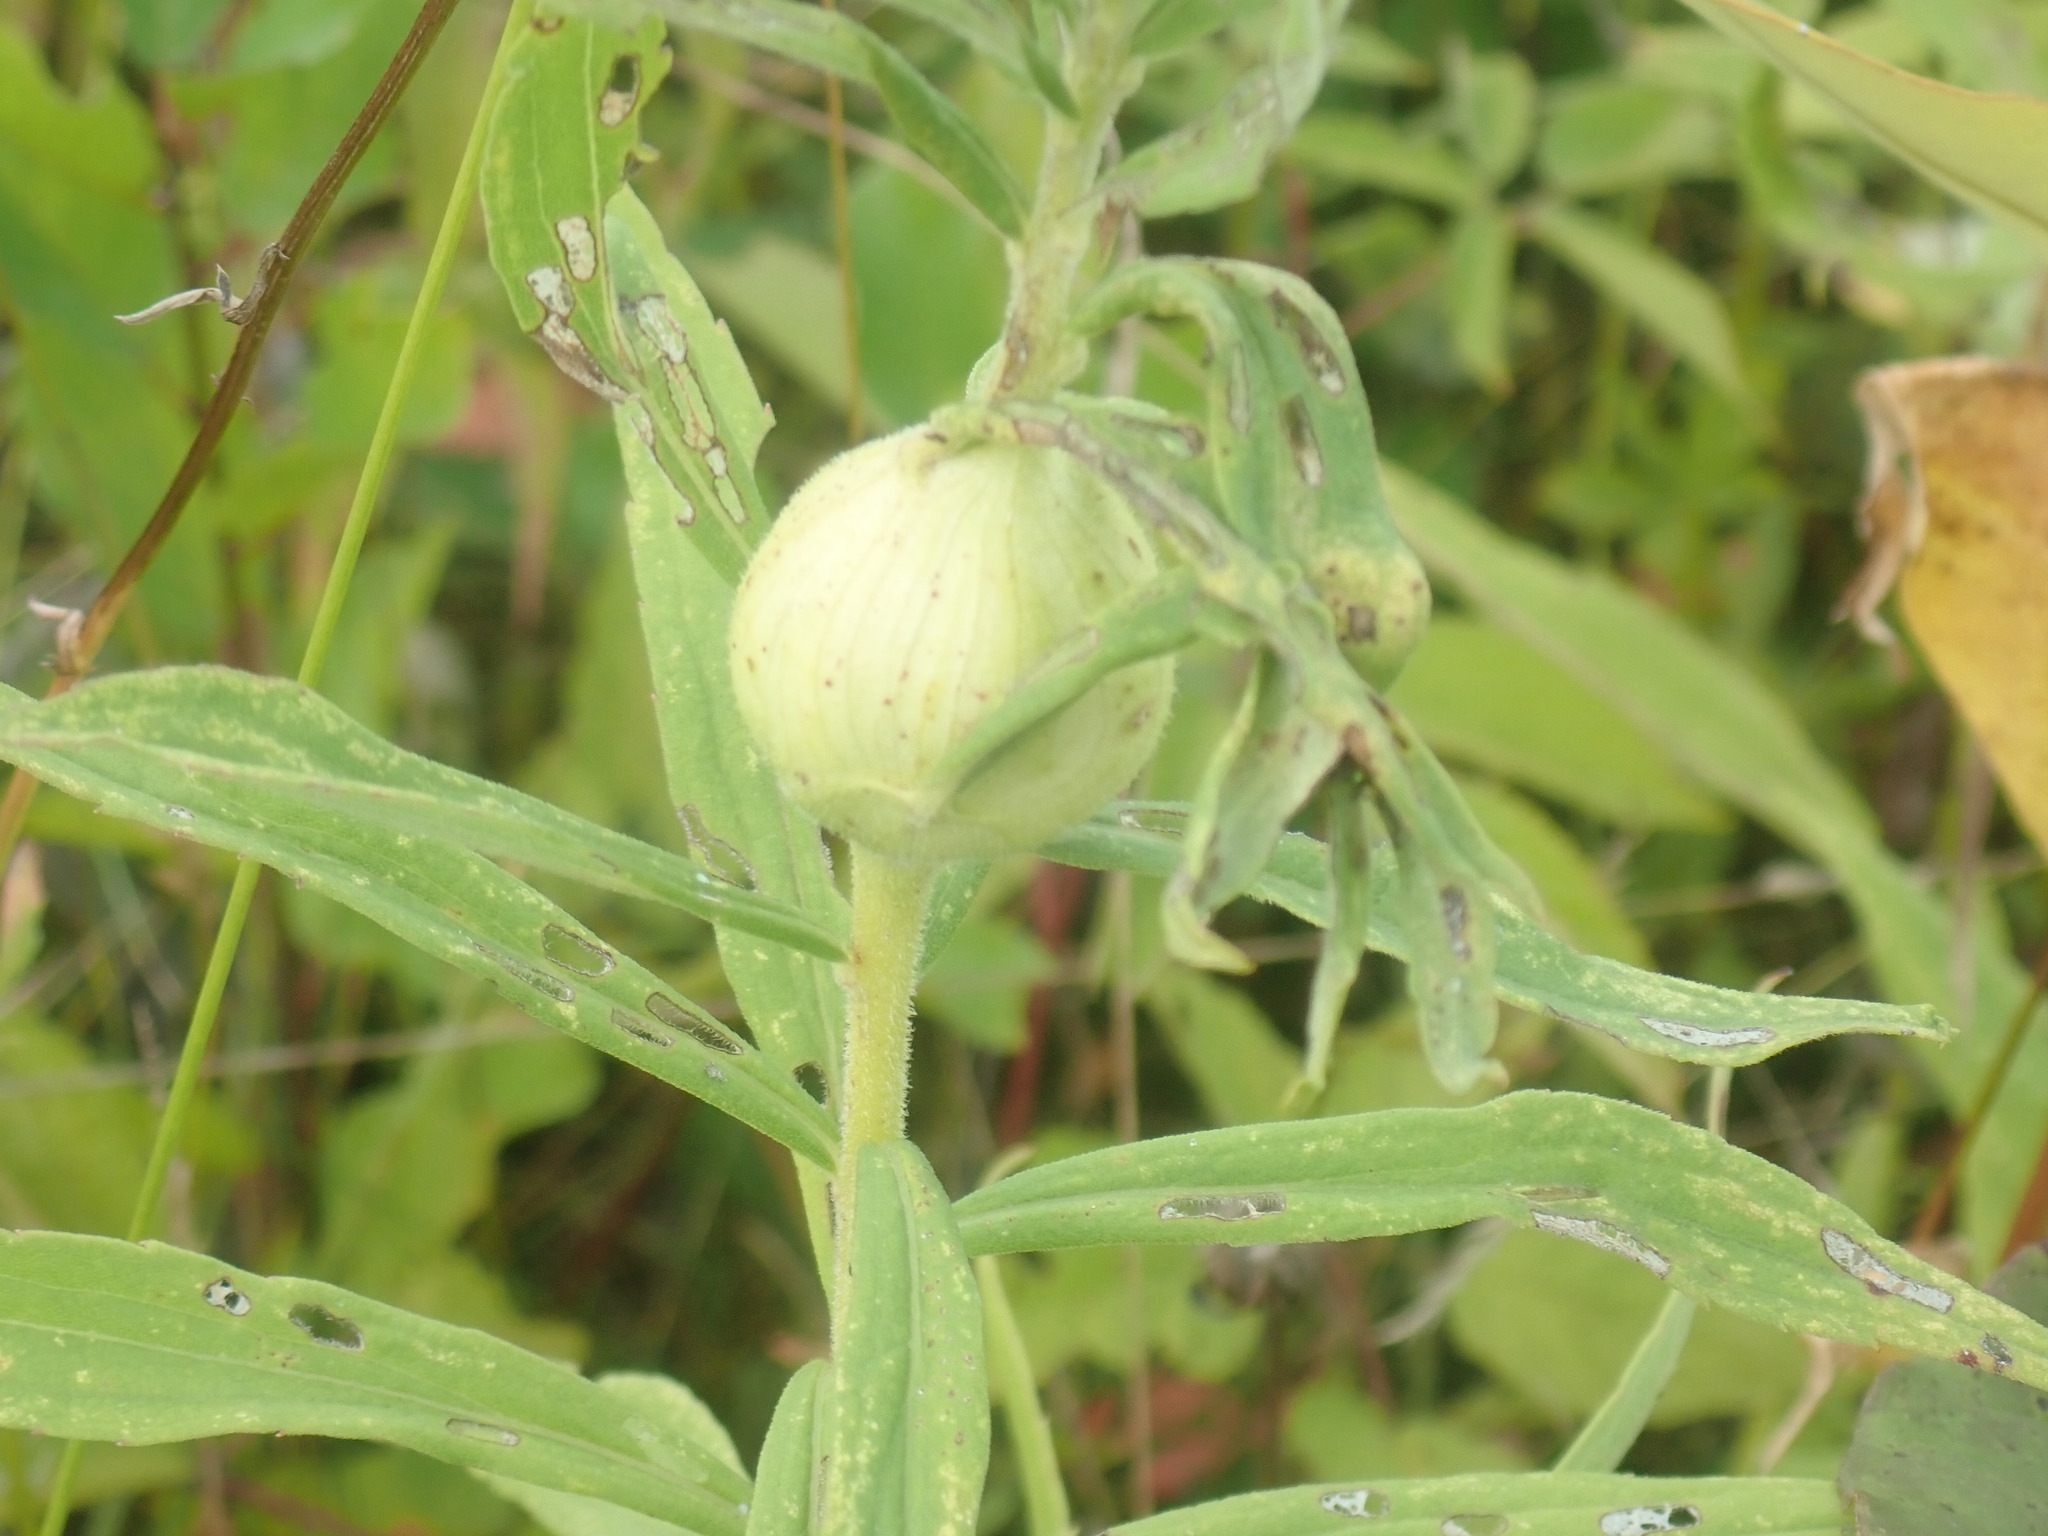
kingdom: Animalia
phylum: Arthropoda
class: Insecta
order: Diptera
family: Tephritidae
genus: Eurosta
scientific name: Eurosta solidaginis
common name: Goldenrod gall fly
